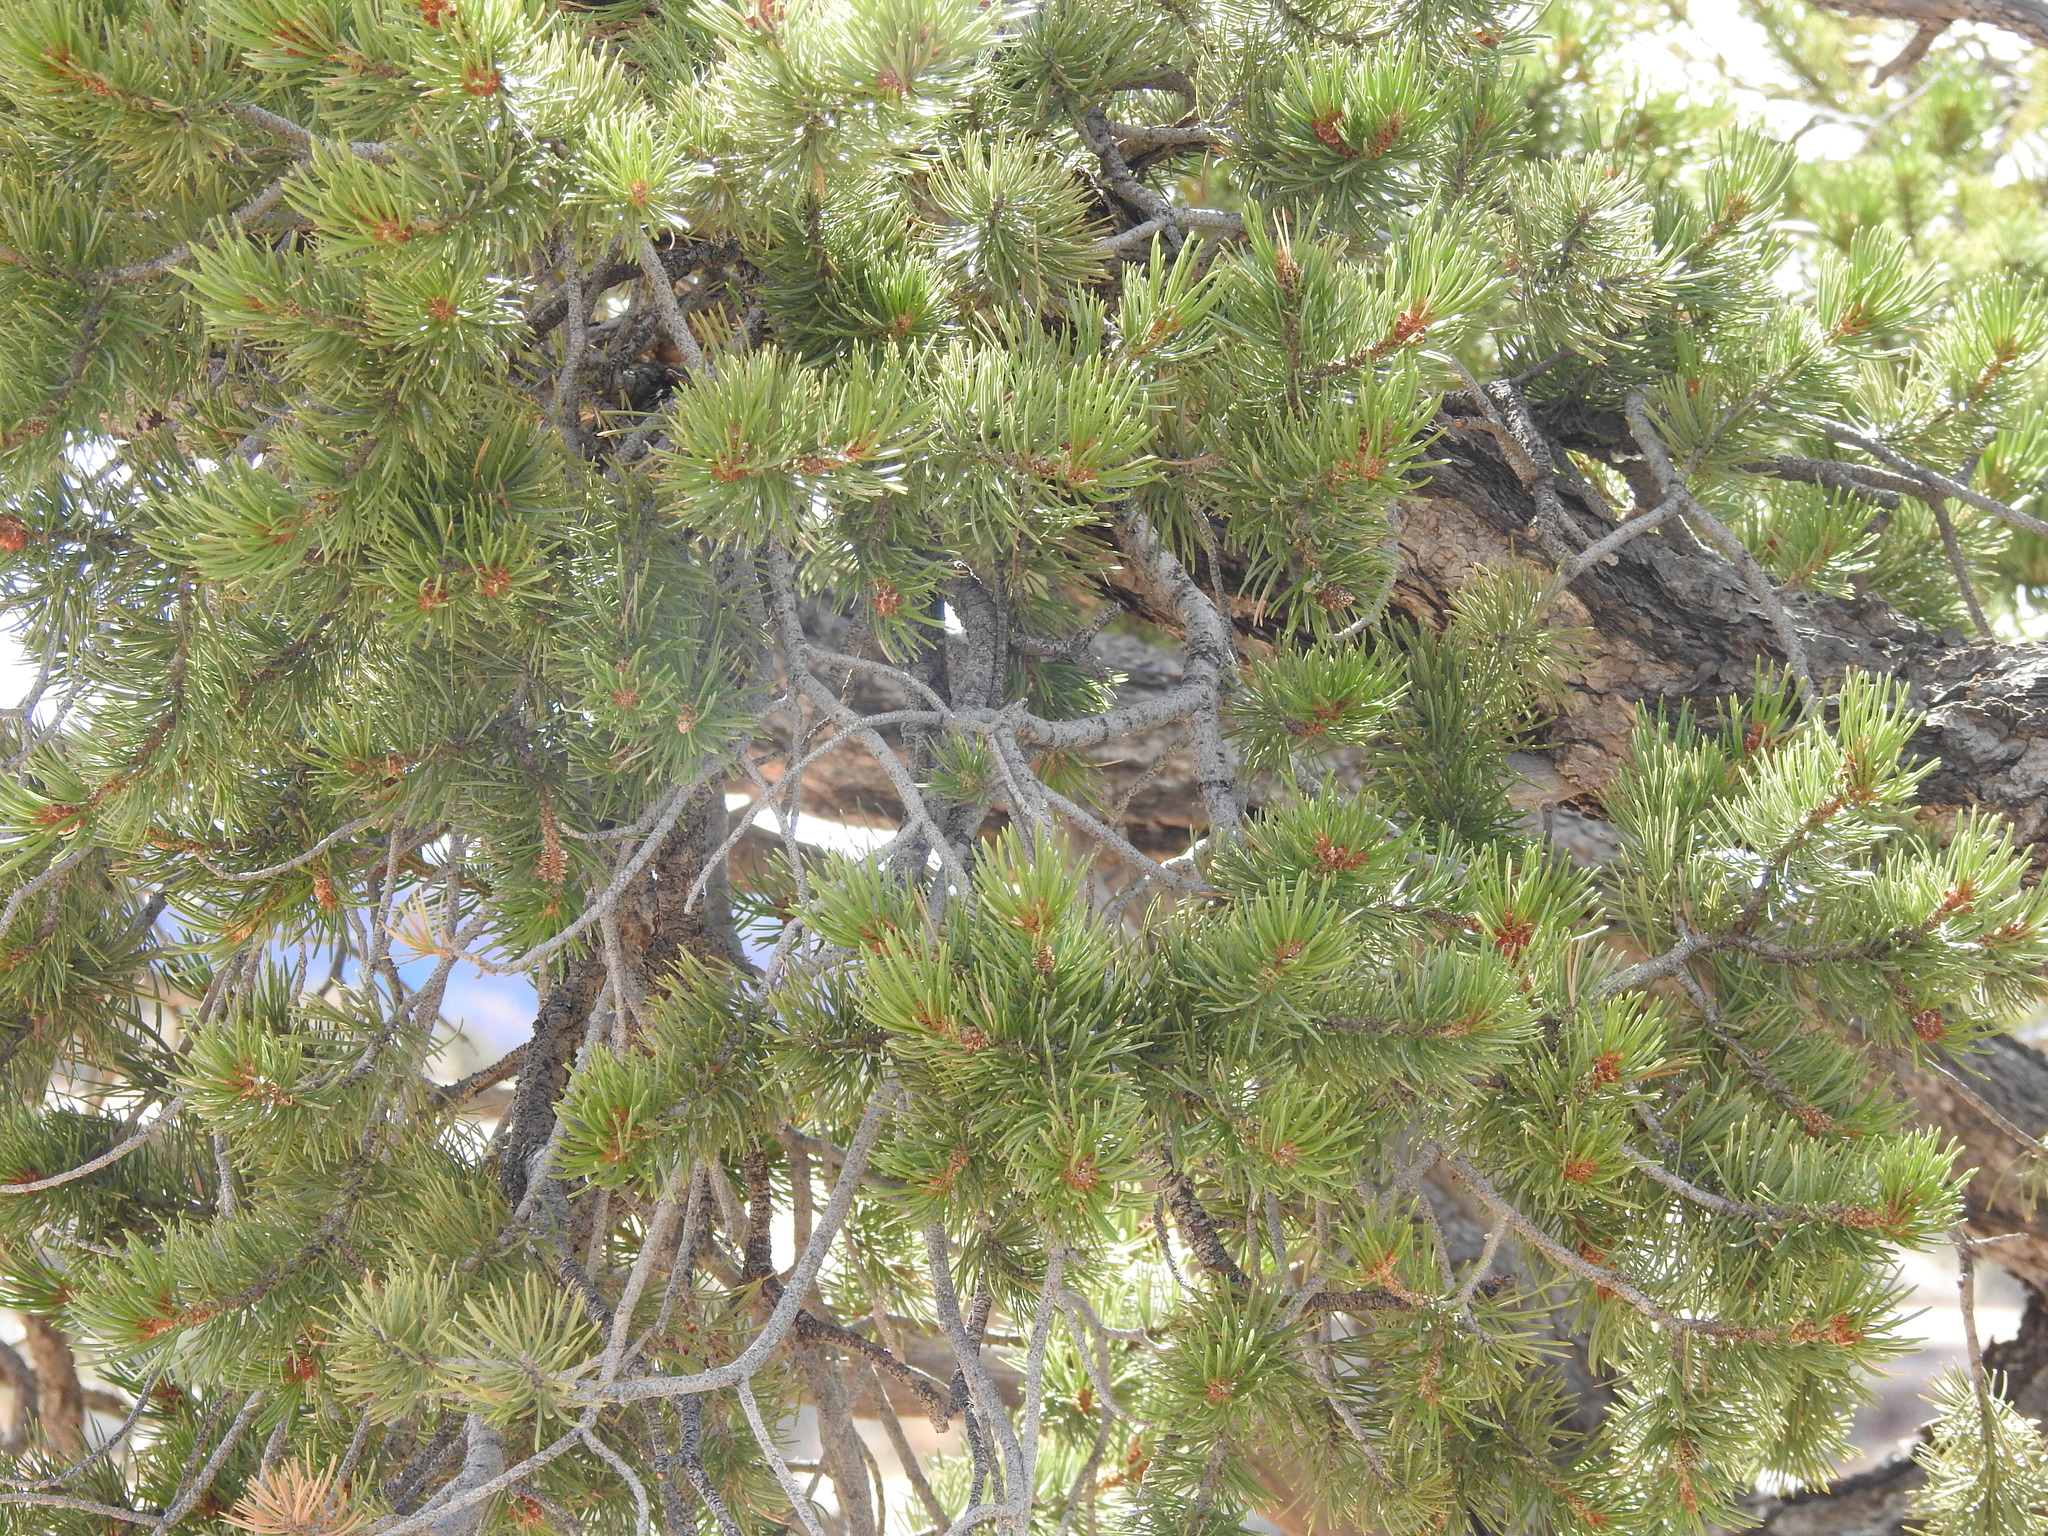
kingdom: Plantae
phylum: Tracheophyta
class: Pinopsida
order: Pinales
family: Pinaceae
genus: Pinus
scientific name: Pinus edulis
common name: Colorado pinyon
